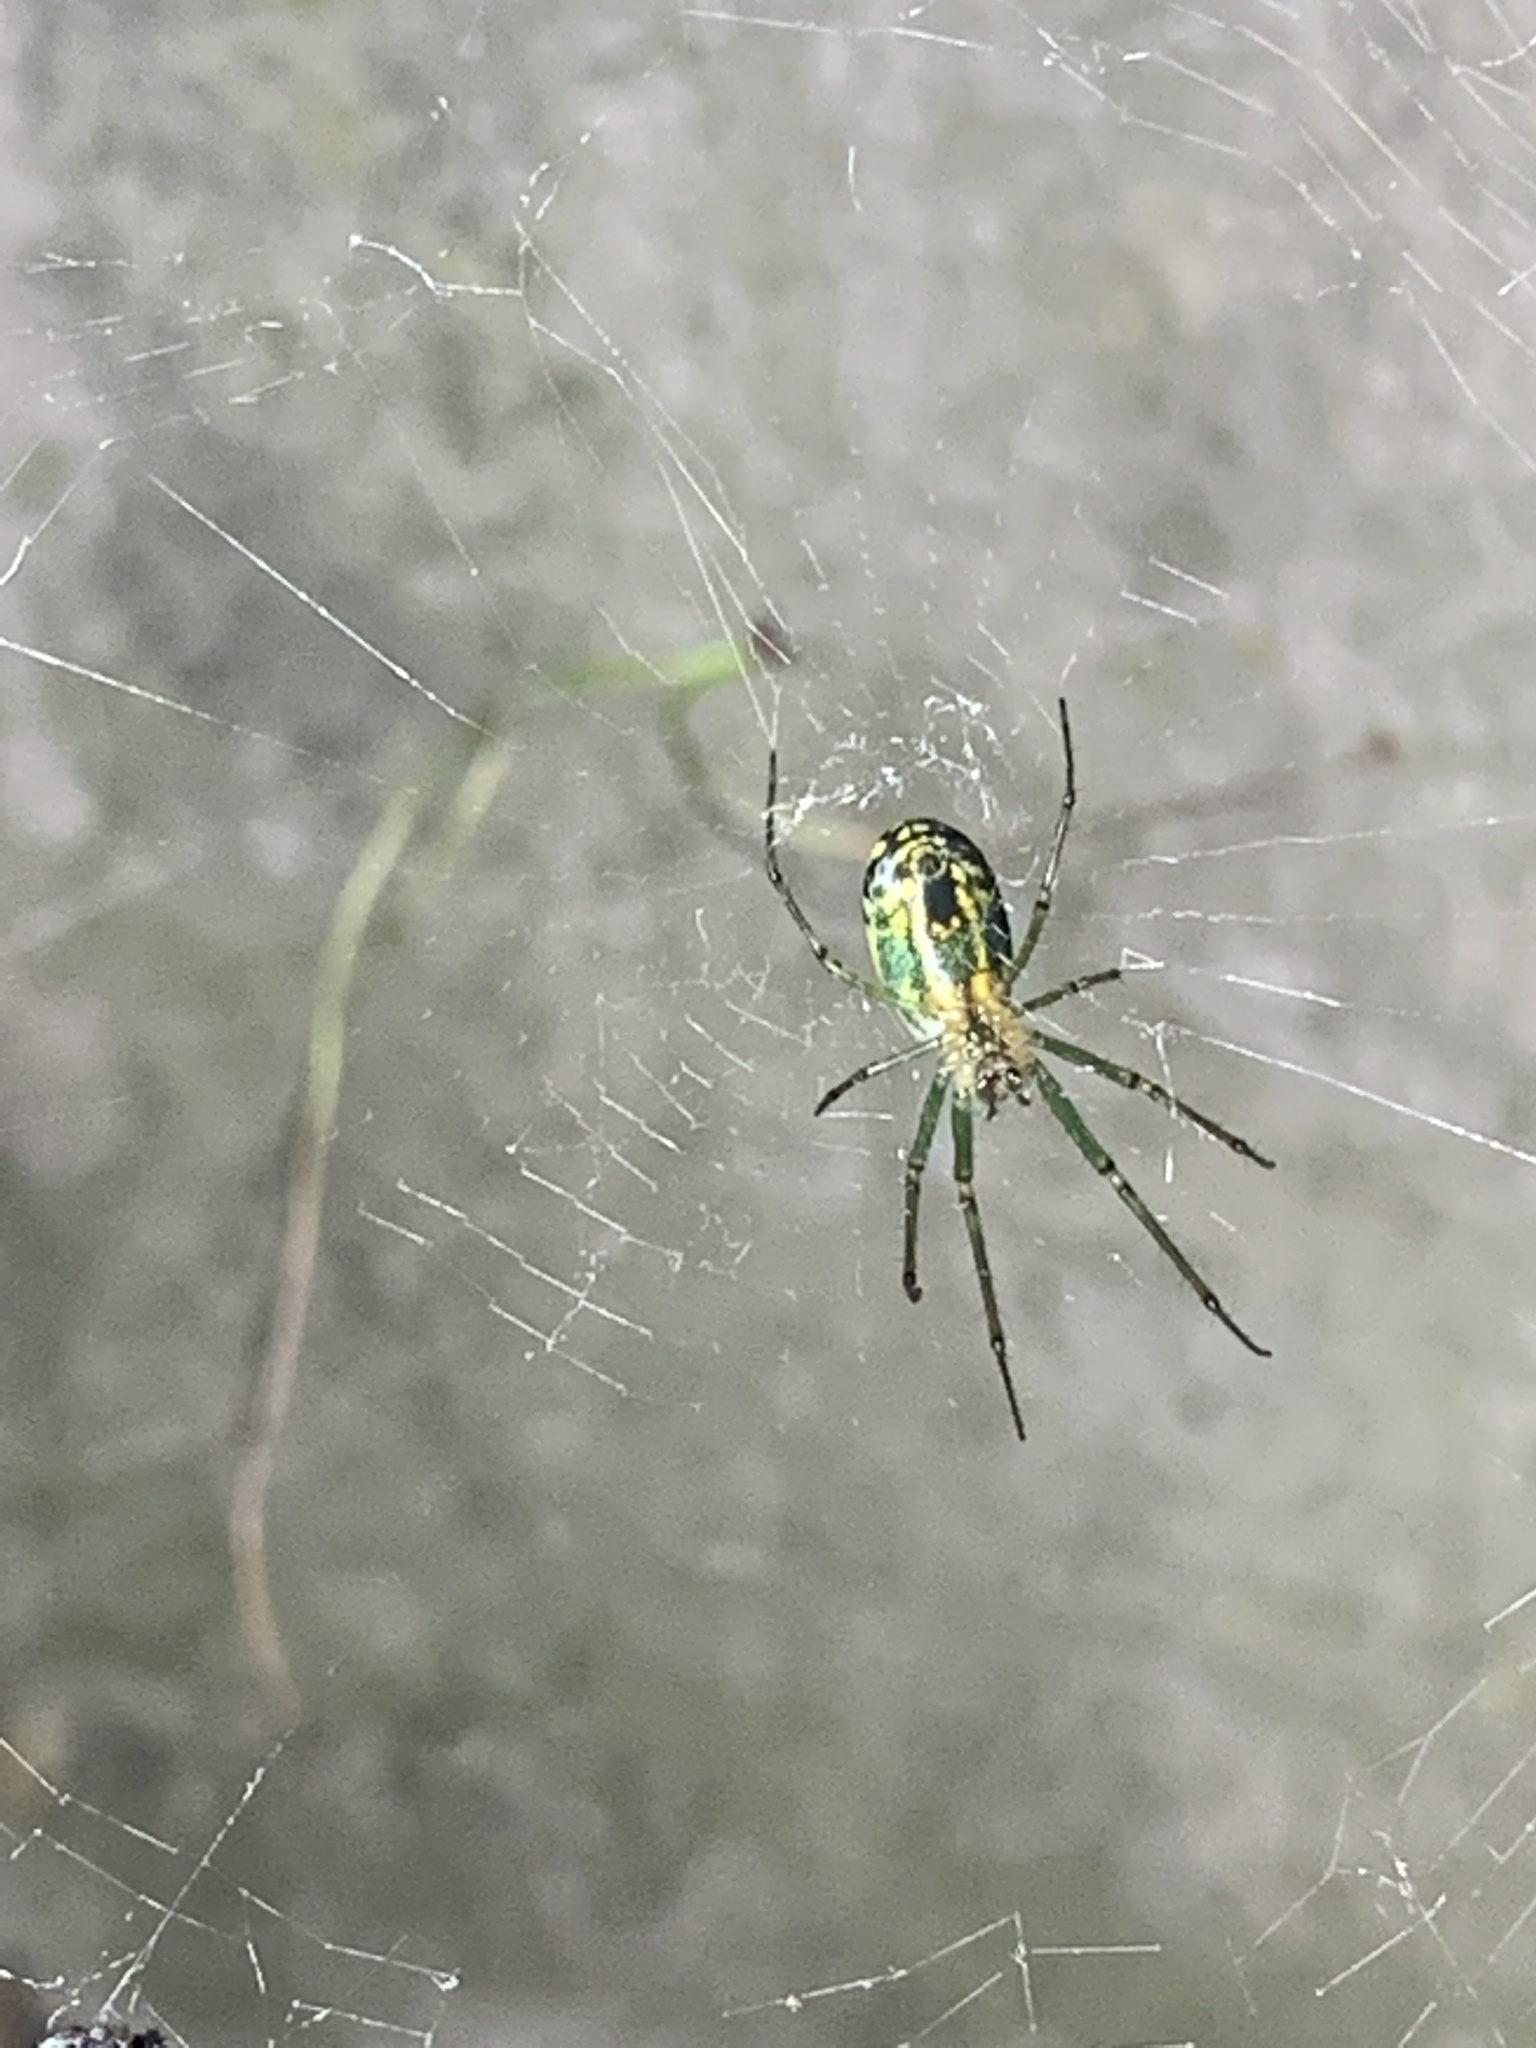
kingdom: Animalia
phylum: Arthropoda
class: Arachnida
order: Araneae
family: Tetragnathidae
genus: Leucauge
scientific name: Leucauge venusta
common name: Longjawed orb weavers
